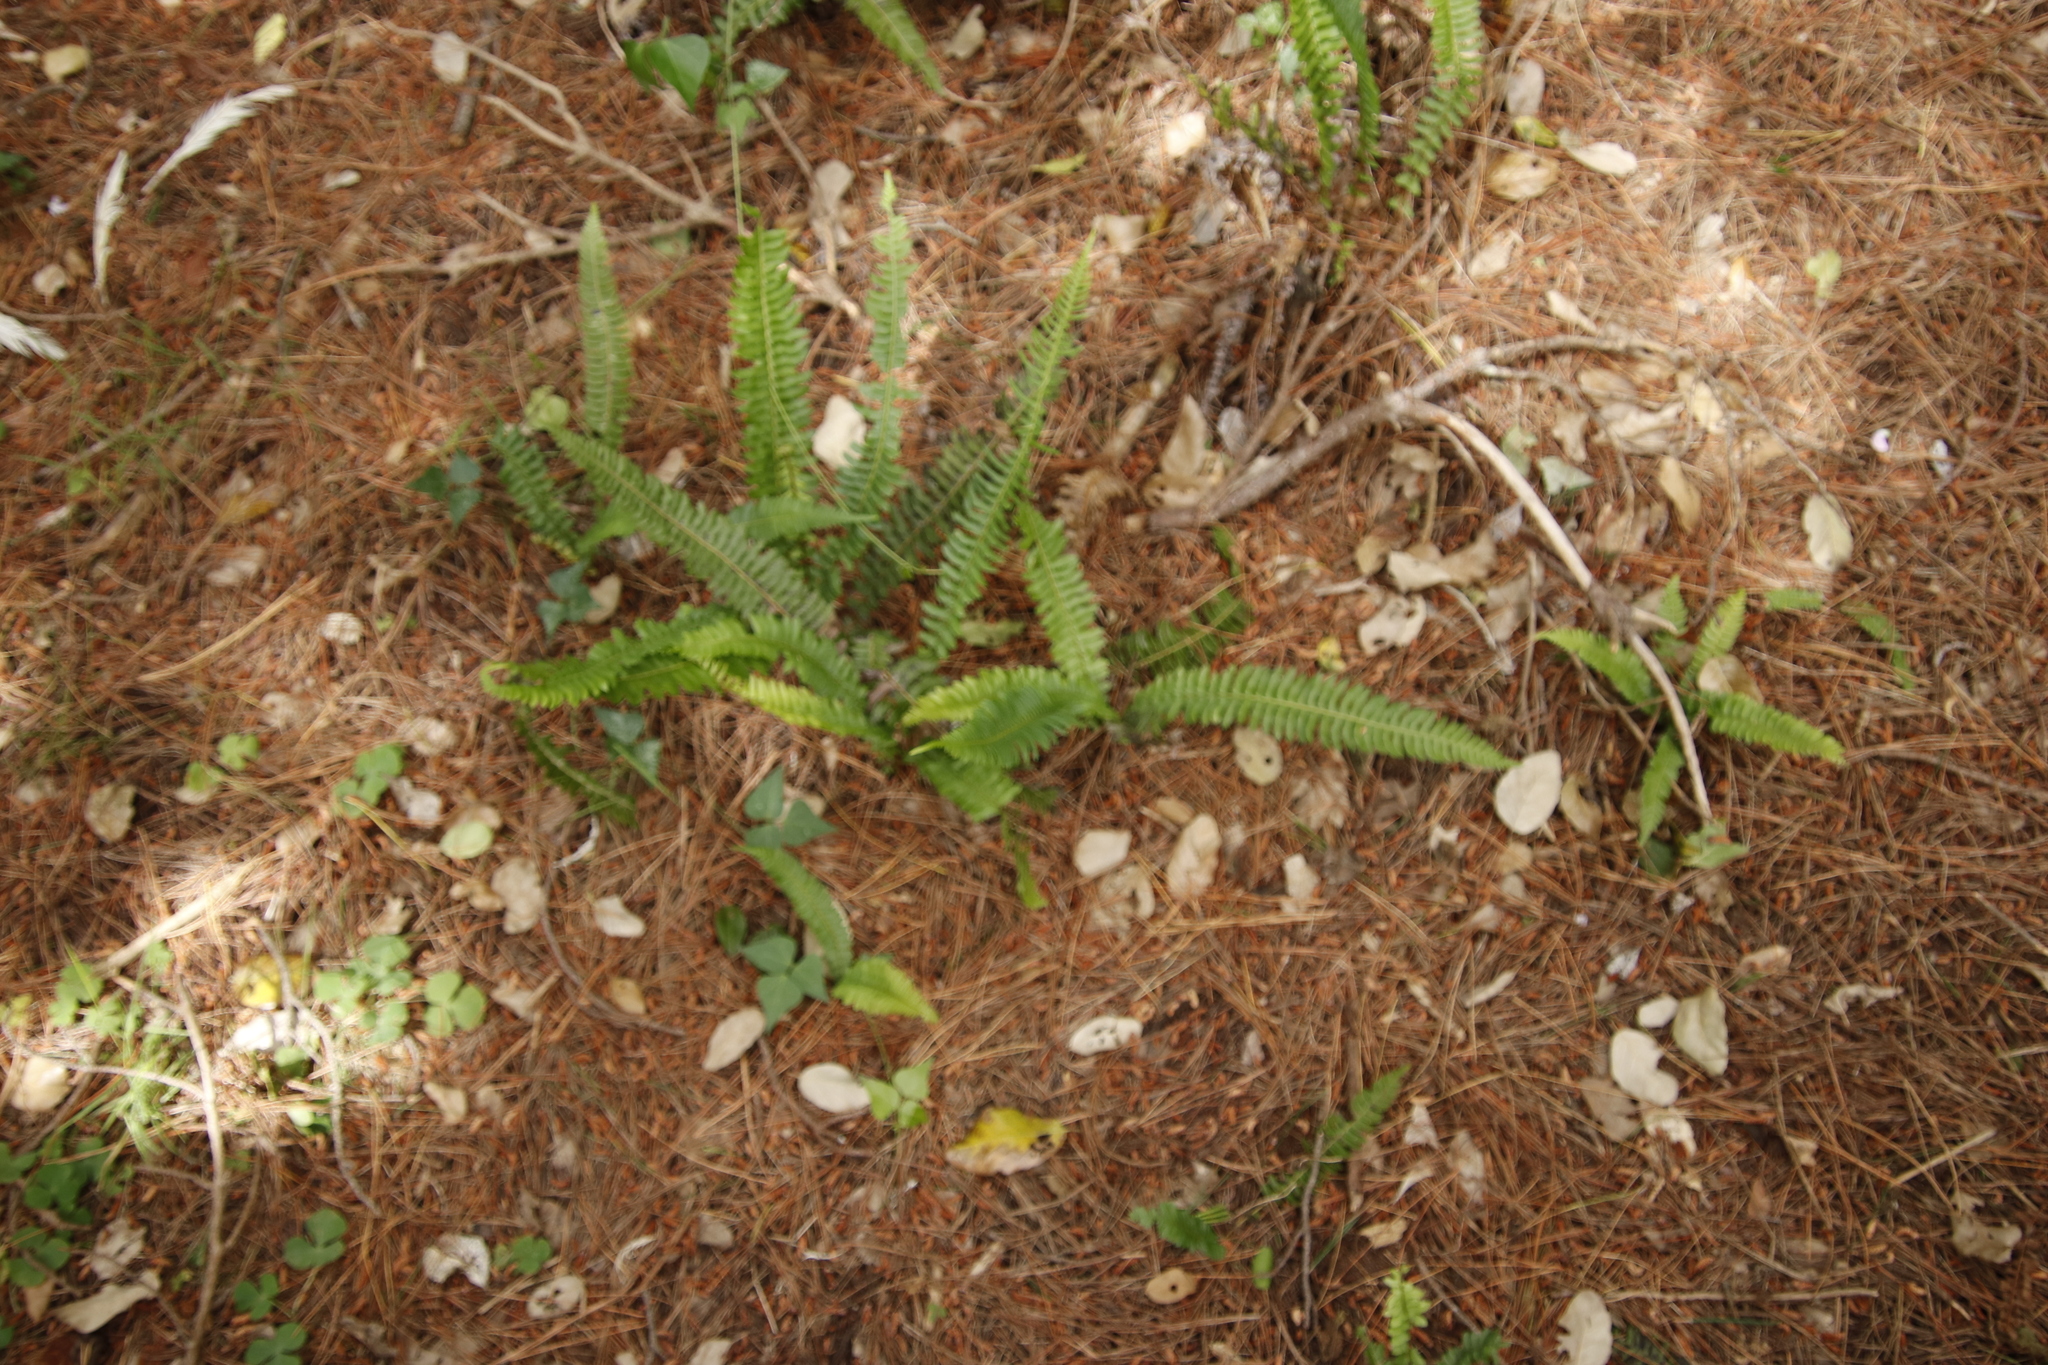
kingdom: Plantae
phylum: Tracheophyta
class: Polypodiopsida
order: Polypodiales
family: Blechnaceae
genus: Blechnum
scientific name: Blechnum australe
